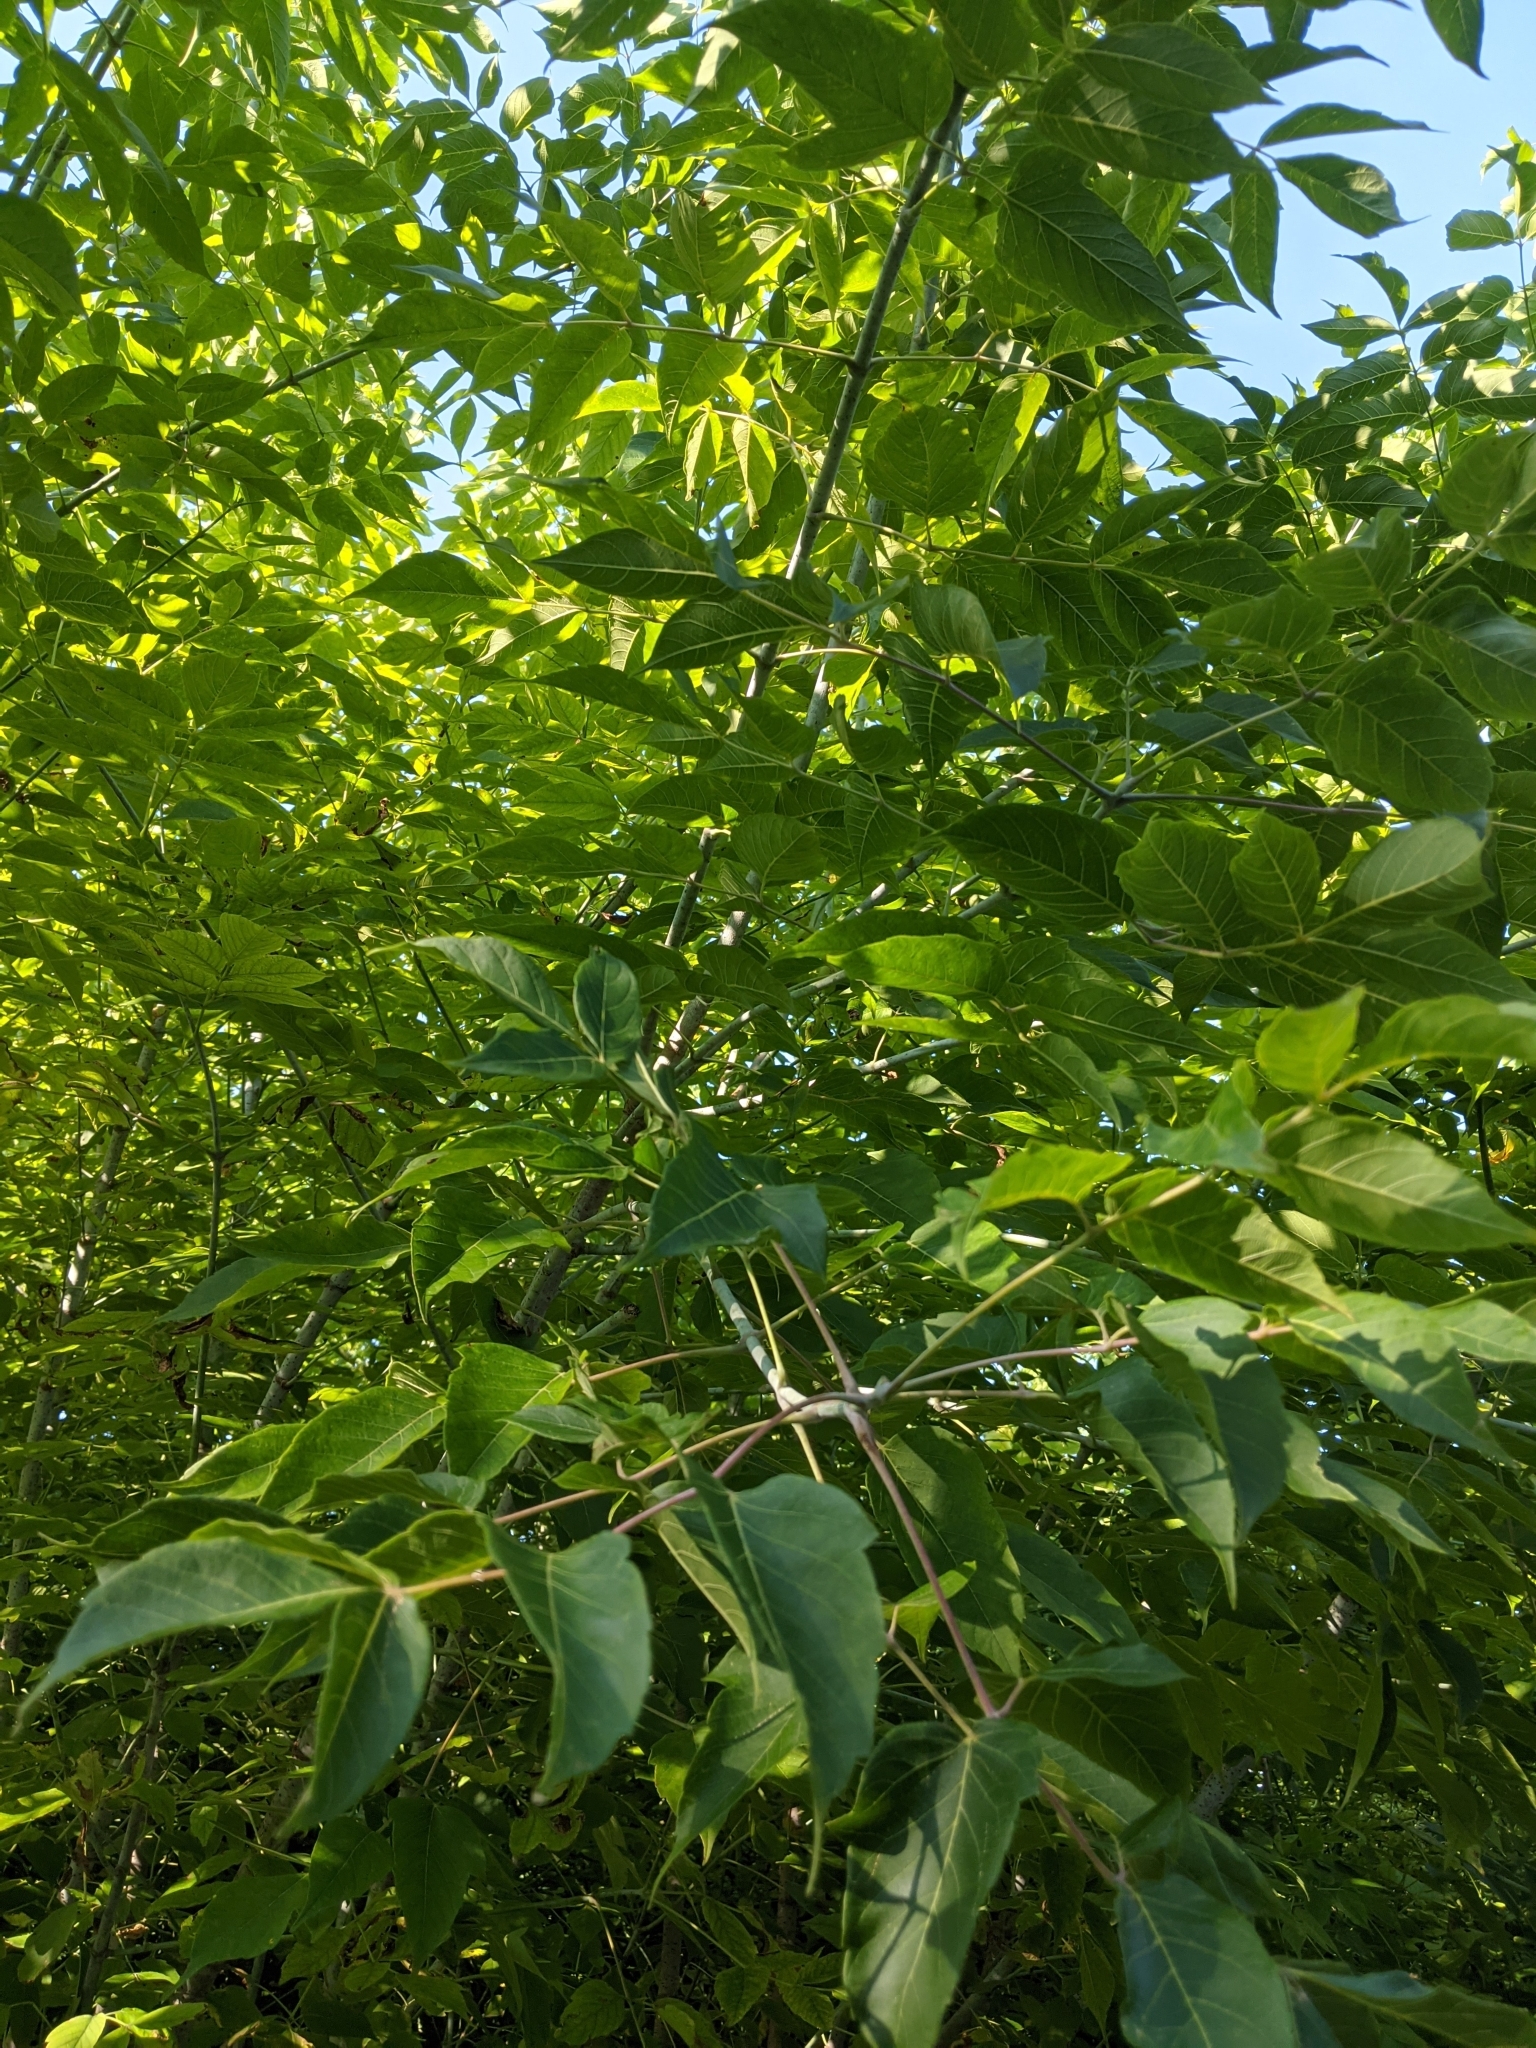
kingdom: Plantae
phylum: Tracheophyta
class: Magnoliopsida
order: Sapindales
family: Sapindaceae
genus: Acer
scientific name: Acer negundo
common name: Ashleaf maple
